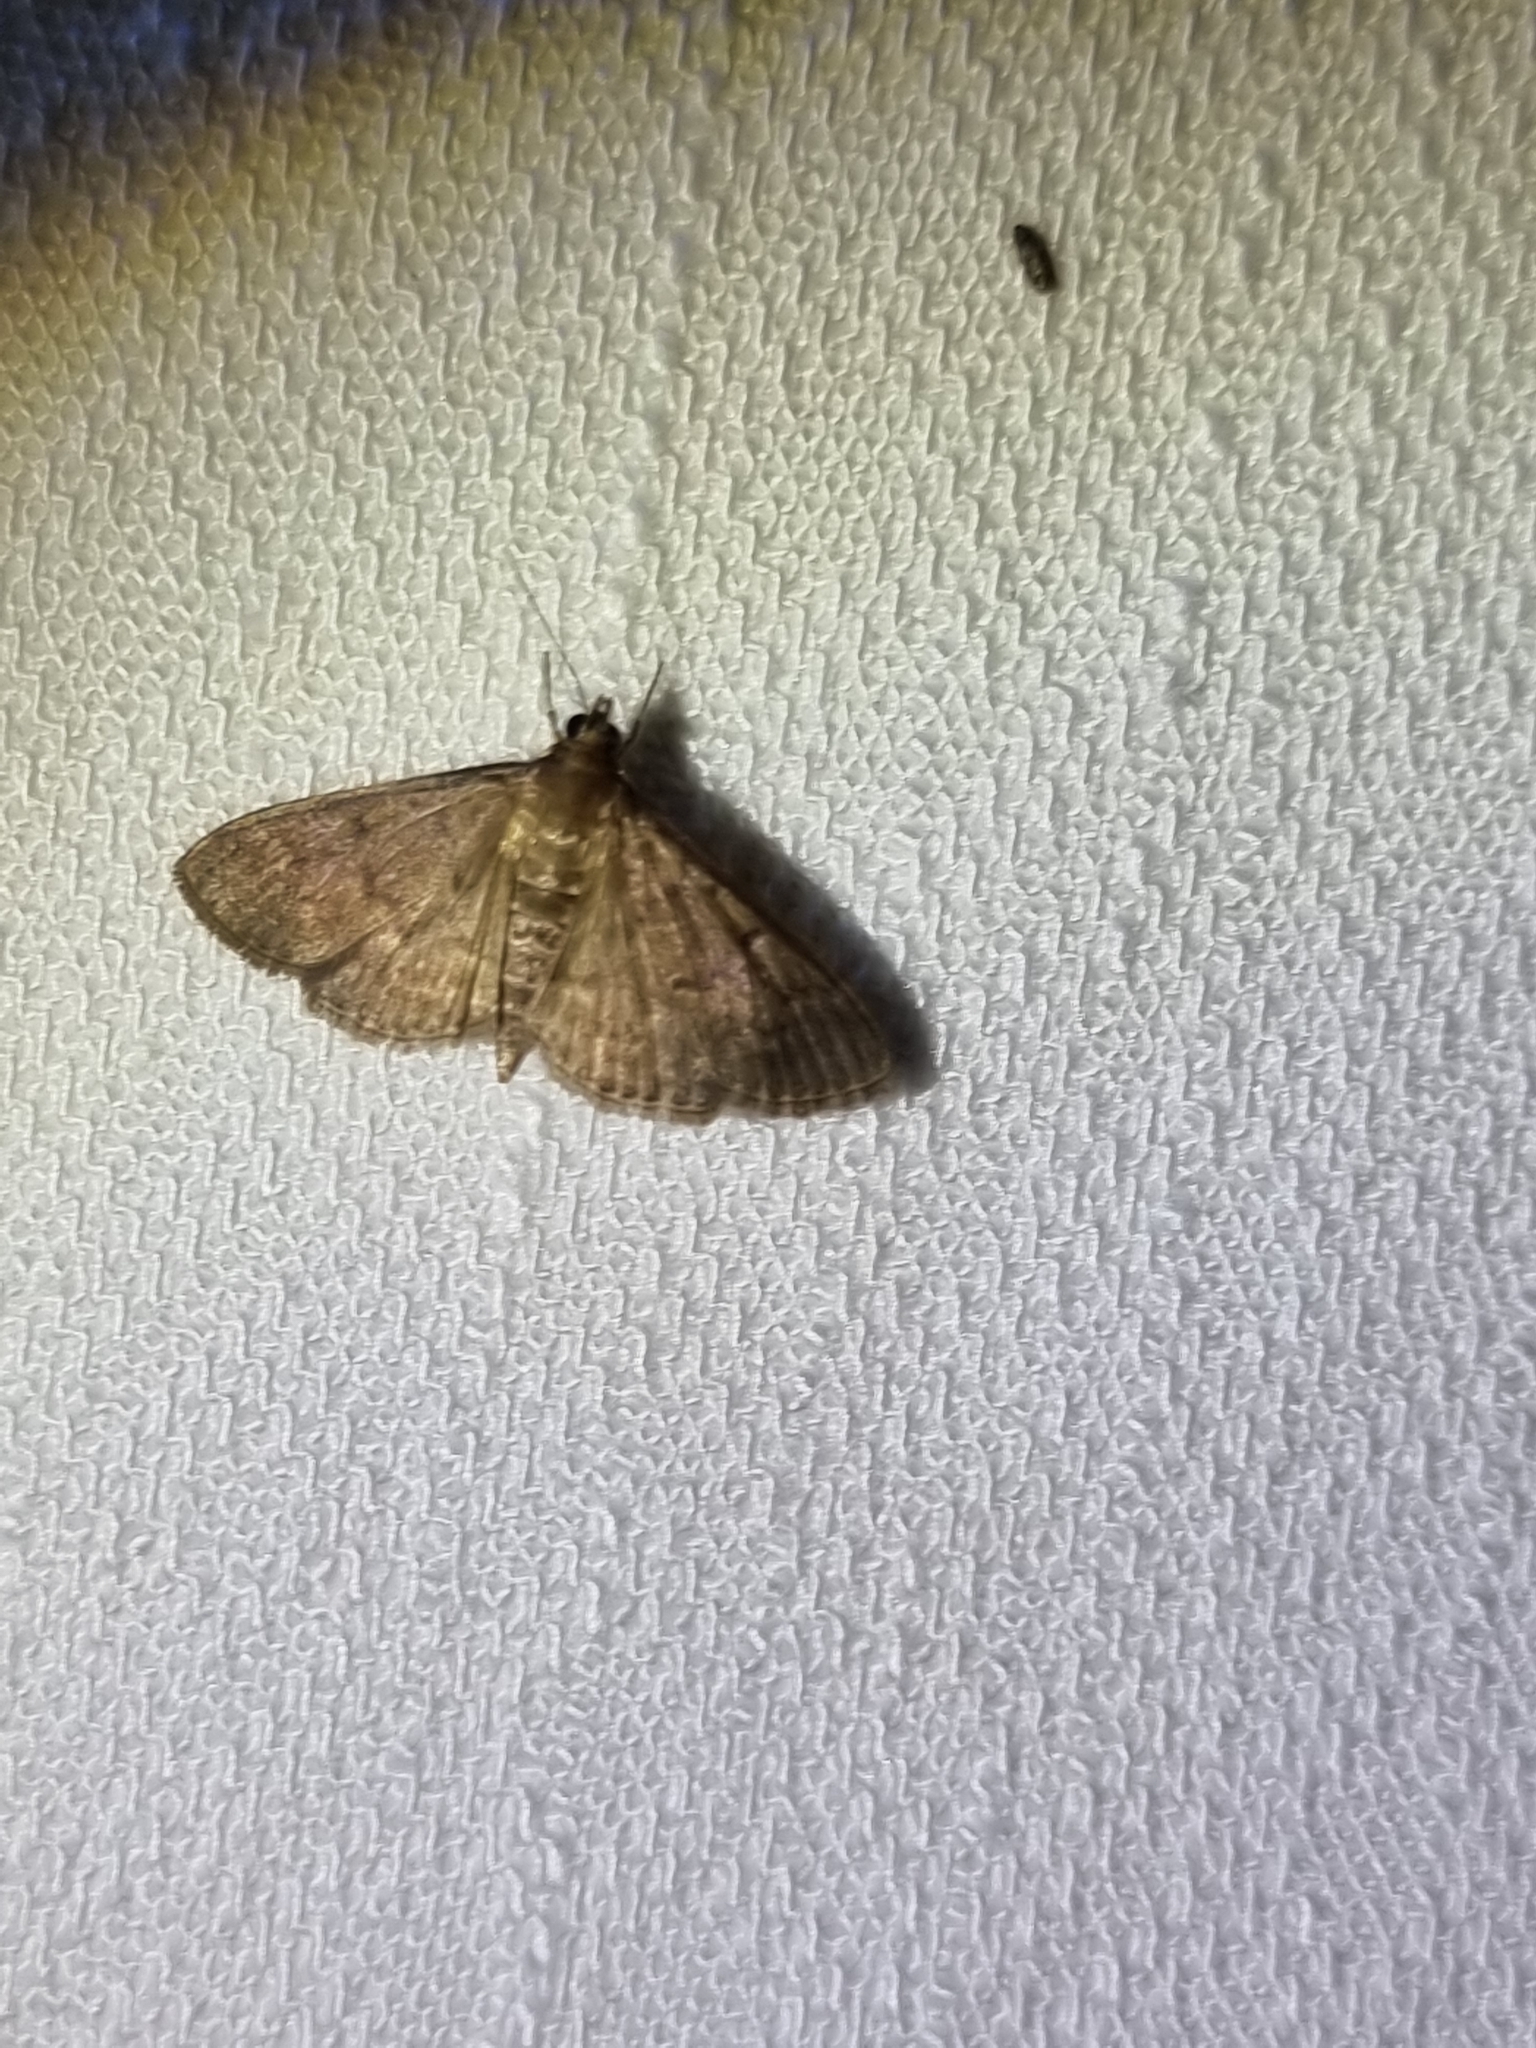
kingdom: Animalia
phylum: Arthropoda
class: Insecta
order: Lepidoptera
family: Crambidae
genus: Herpetogramma
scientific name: Herpetogramma licarsisalis
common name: Grass webworm
